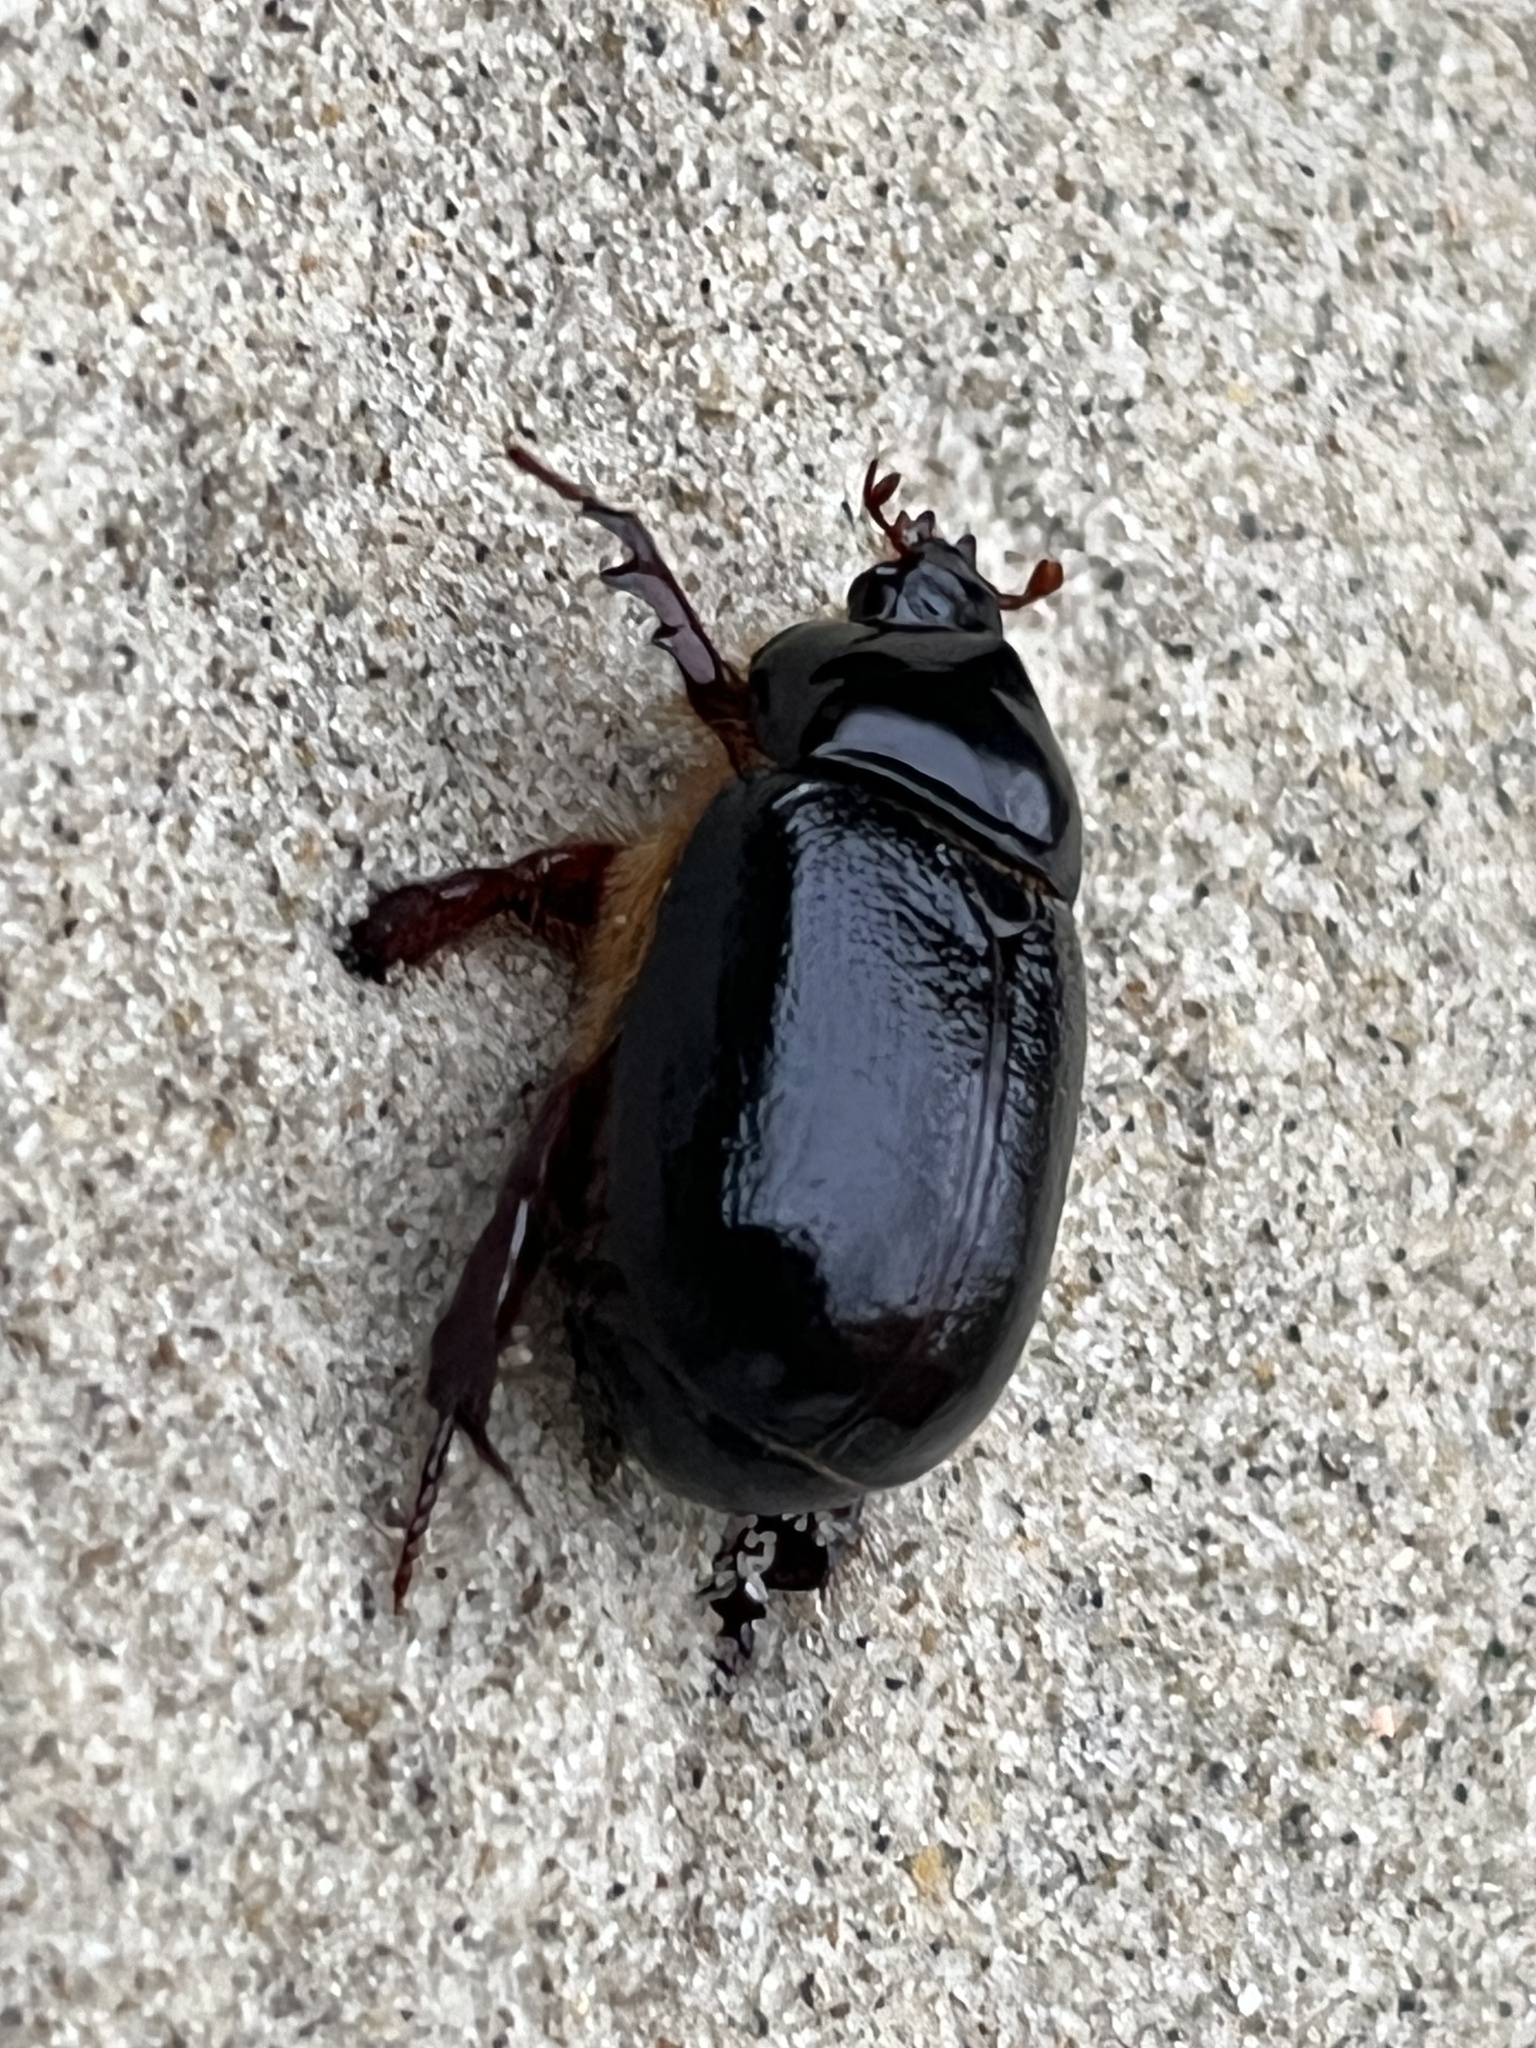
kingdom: Animalia
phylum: Arthropoda
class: Insecta
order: Coleoptera
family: Scarabaeidae
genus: Pericoptus
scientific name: Pericoptus truncatus
